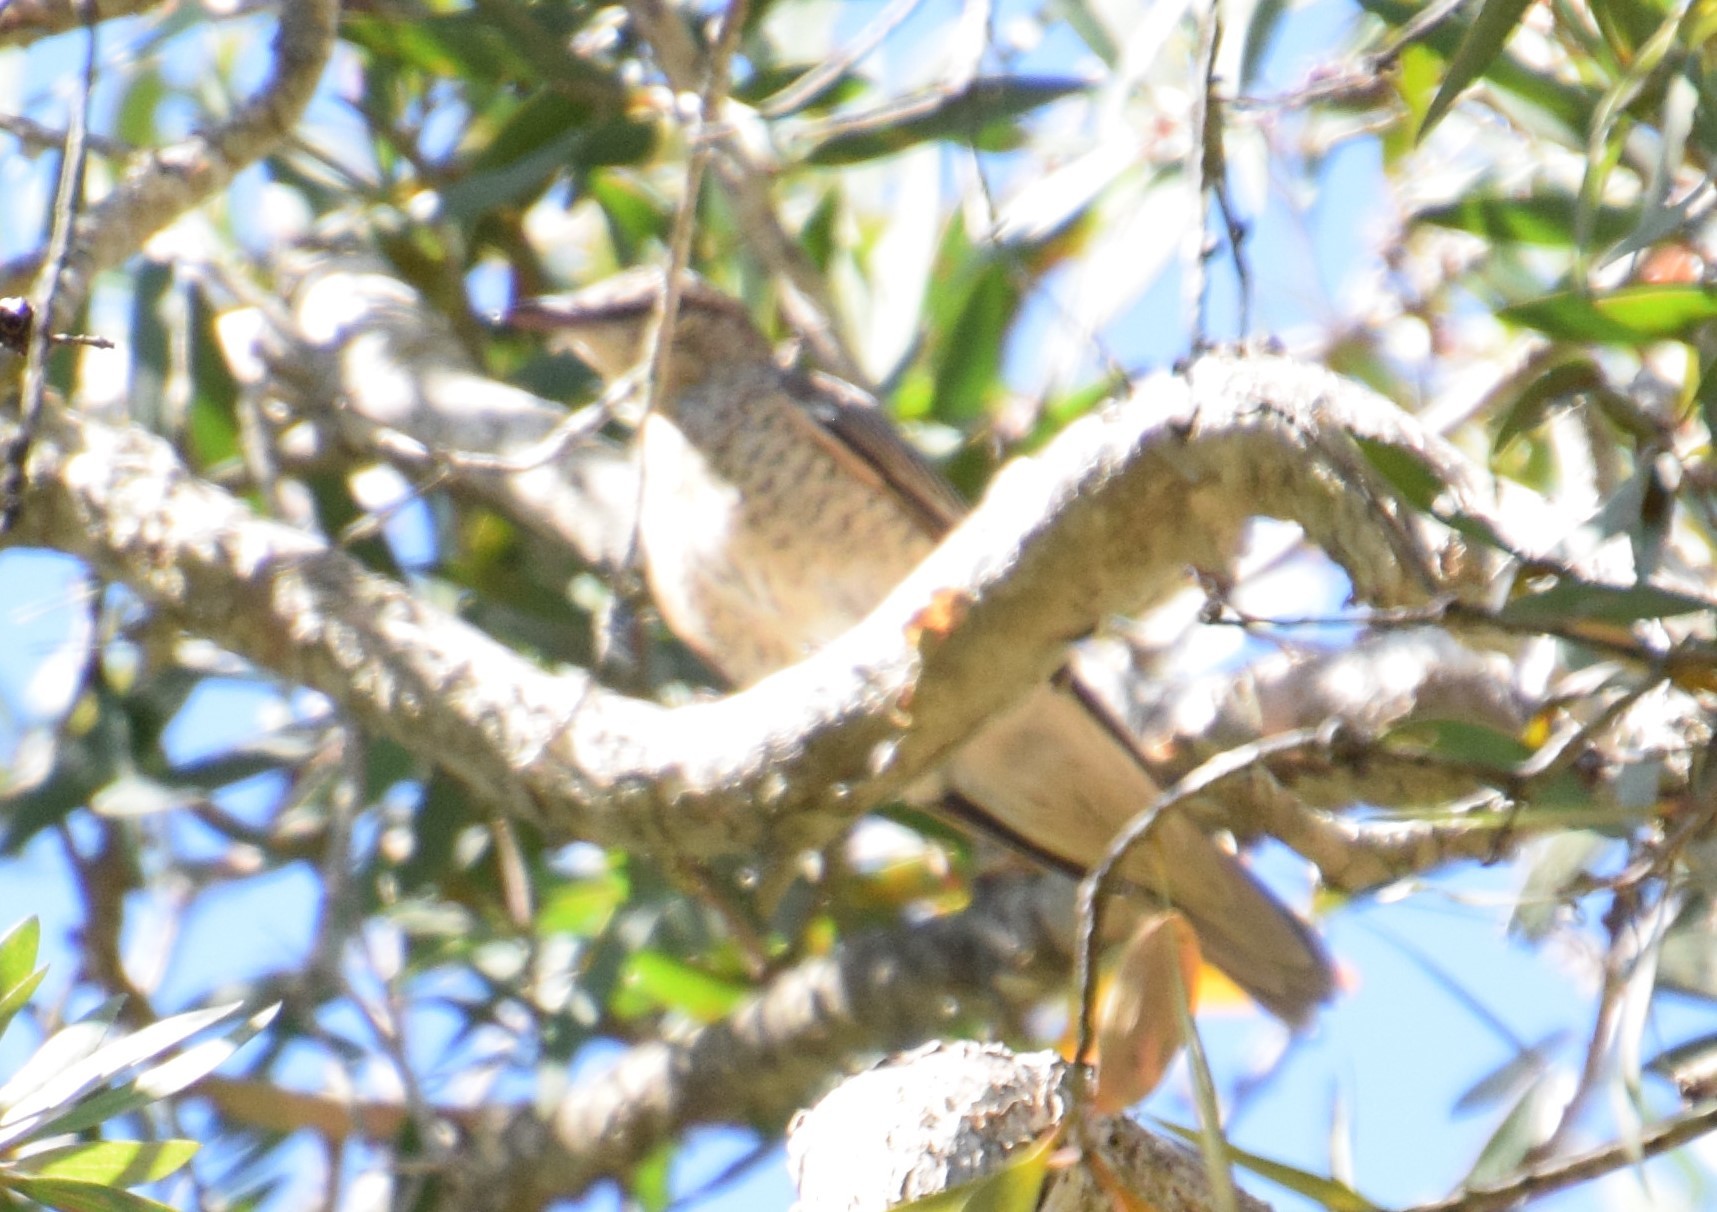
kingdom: Animalia
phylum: Chordata
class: Aves
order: Passeriformes
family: Campephagidae
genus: Edolisoma
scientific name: Edolisoma tenuirostre
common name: Common cicadabird
